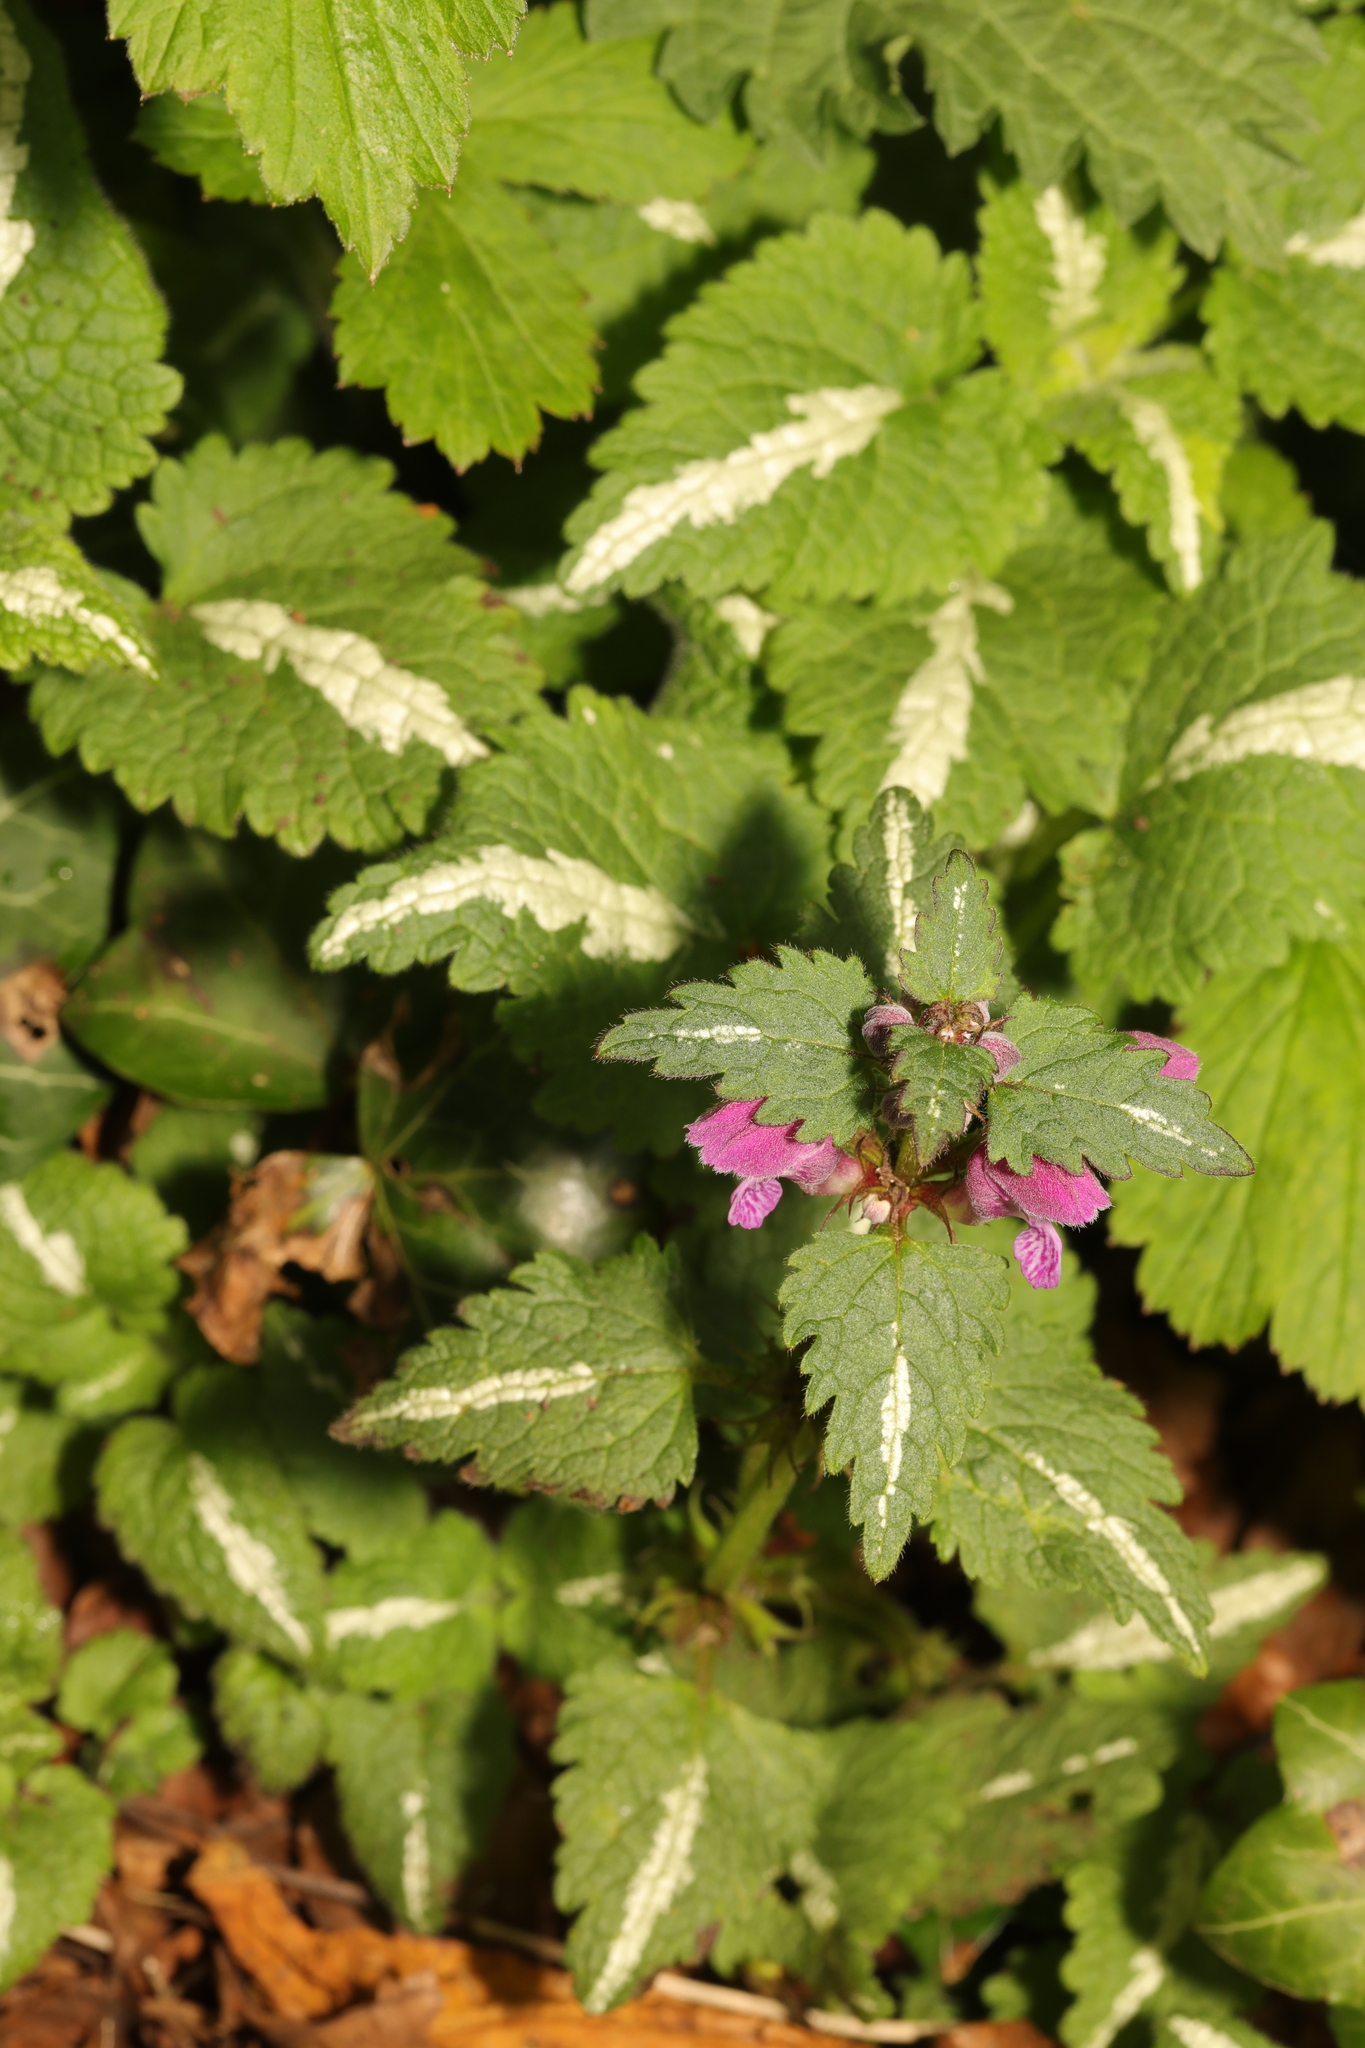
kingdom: Plantae
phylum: Tracheophyta
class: Magnoliopsida
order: Lamiales
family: Lamiaceae
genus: Lamium
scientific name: Lamium maculatum
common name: Spotted dead-nettle
